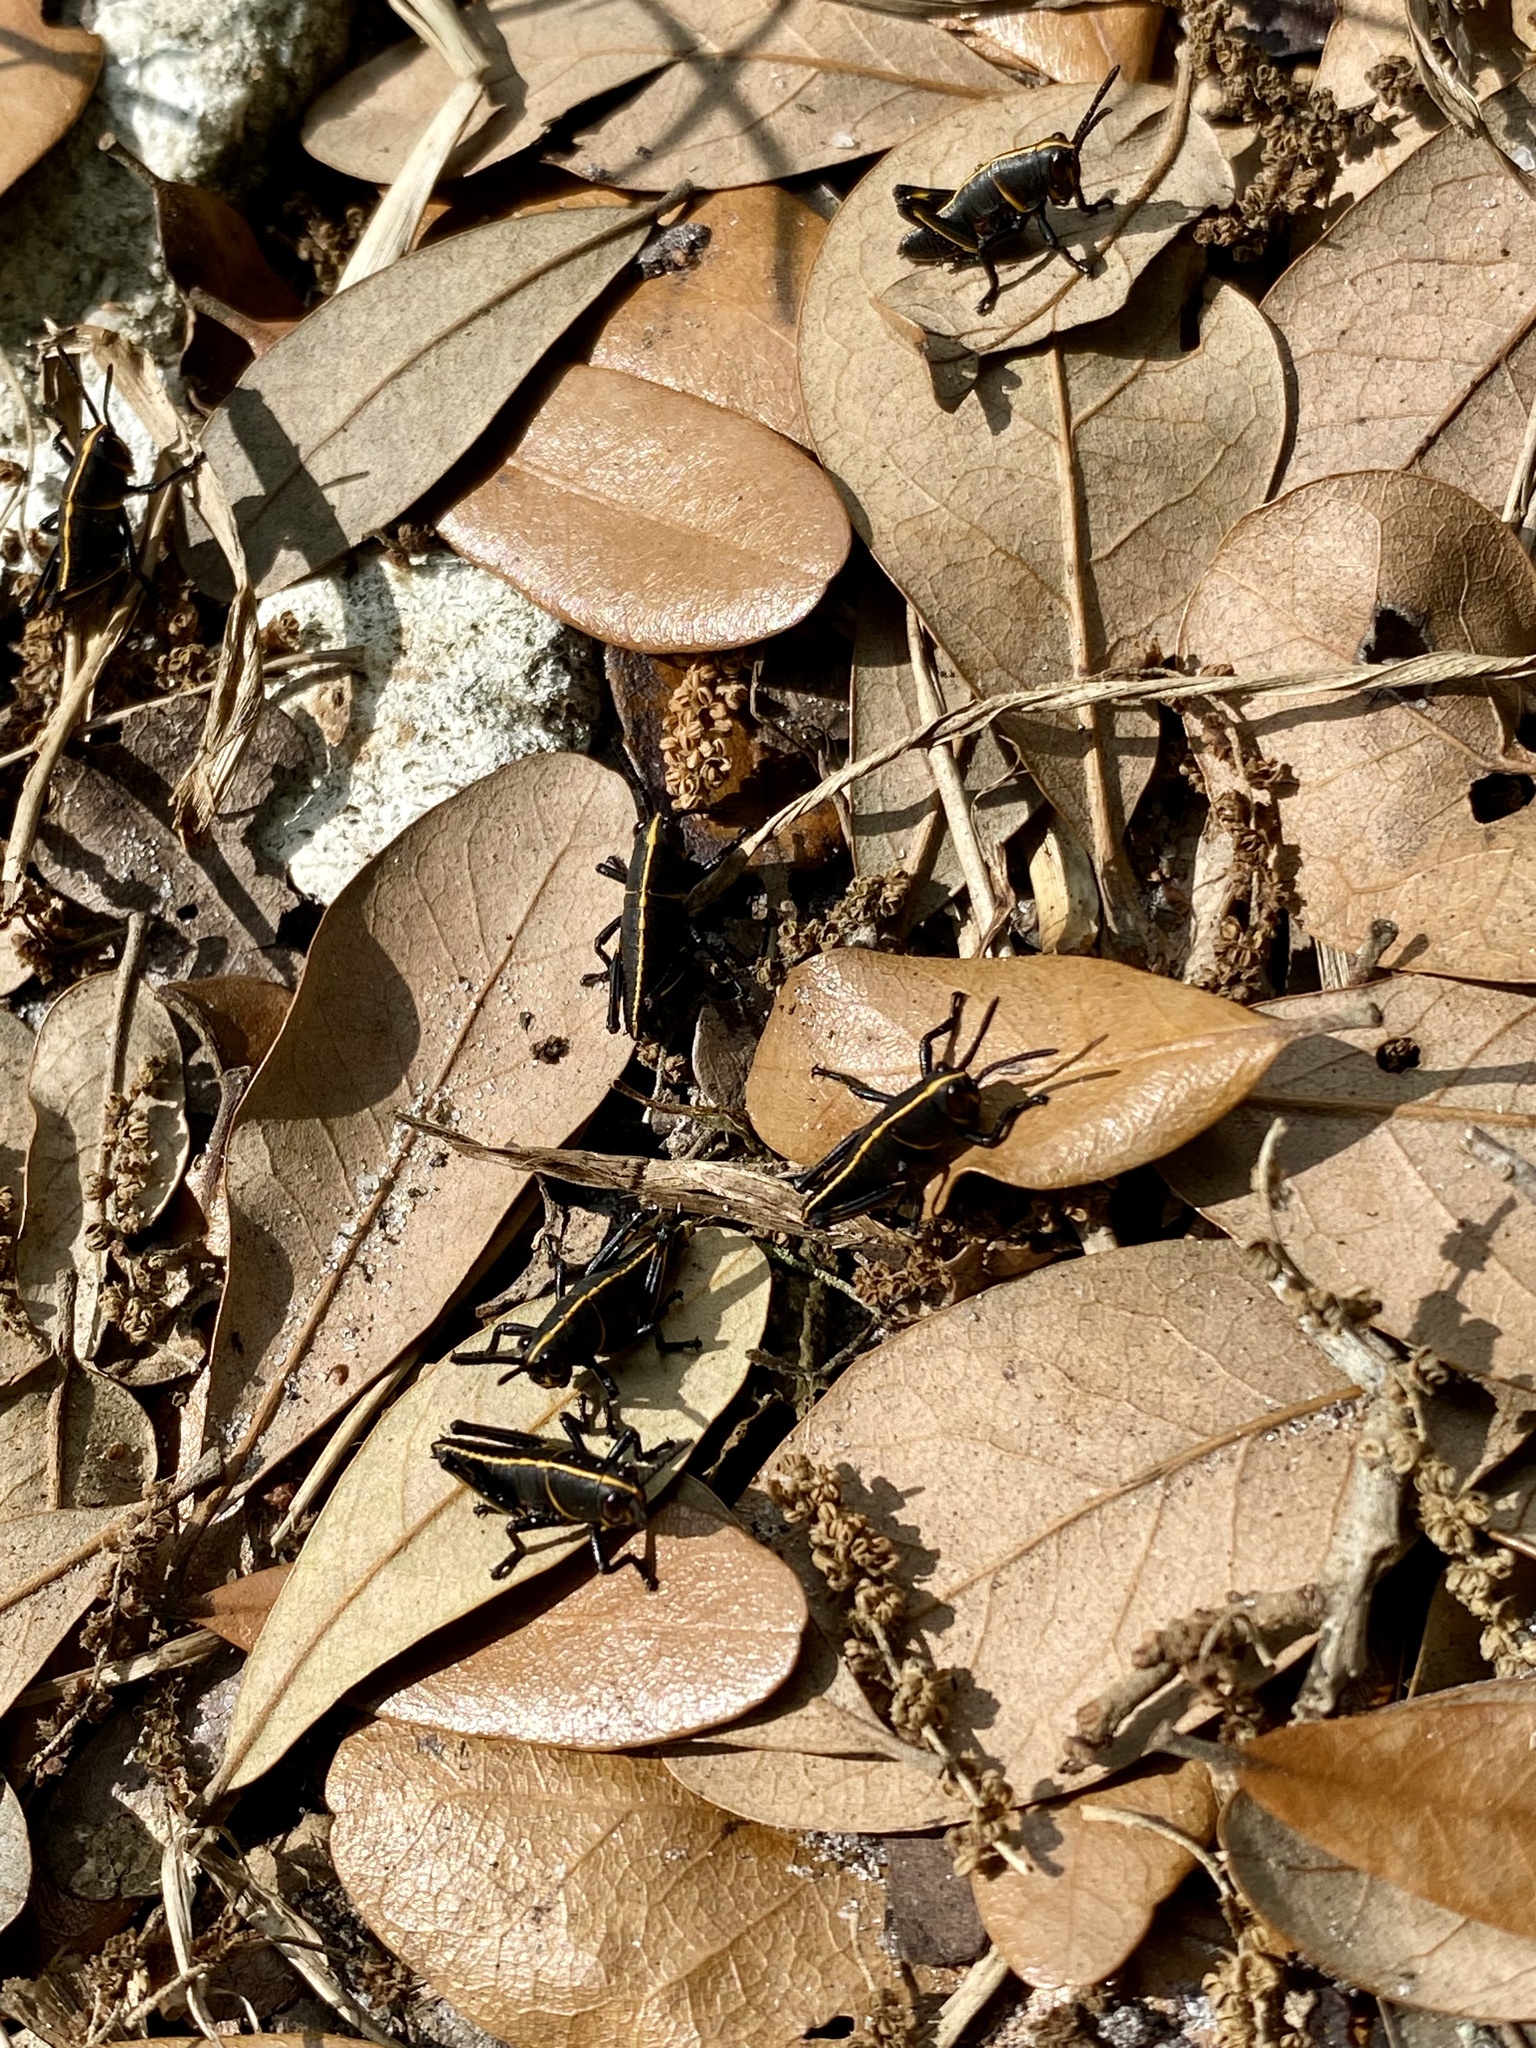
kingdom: Animalia
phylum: Arthropoda
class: Insecta
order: Orthoptera
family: Romaleidae
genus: Romalea
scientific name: Romalea microptera
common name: Eastern lubber grasshopper
